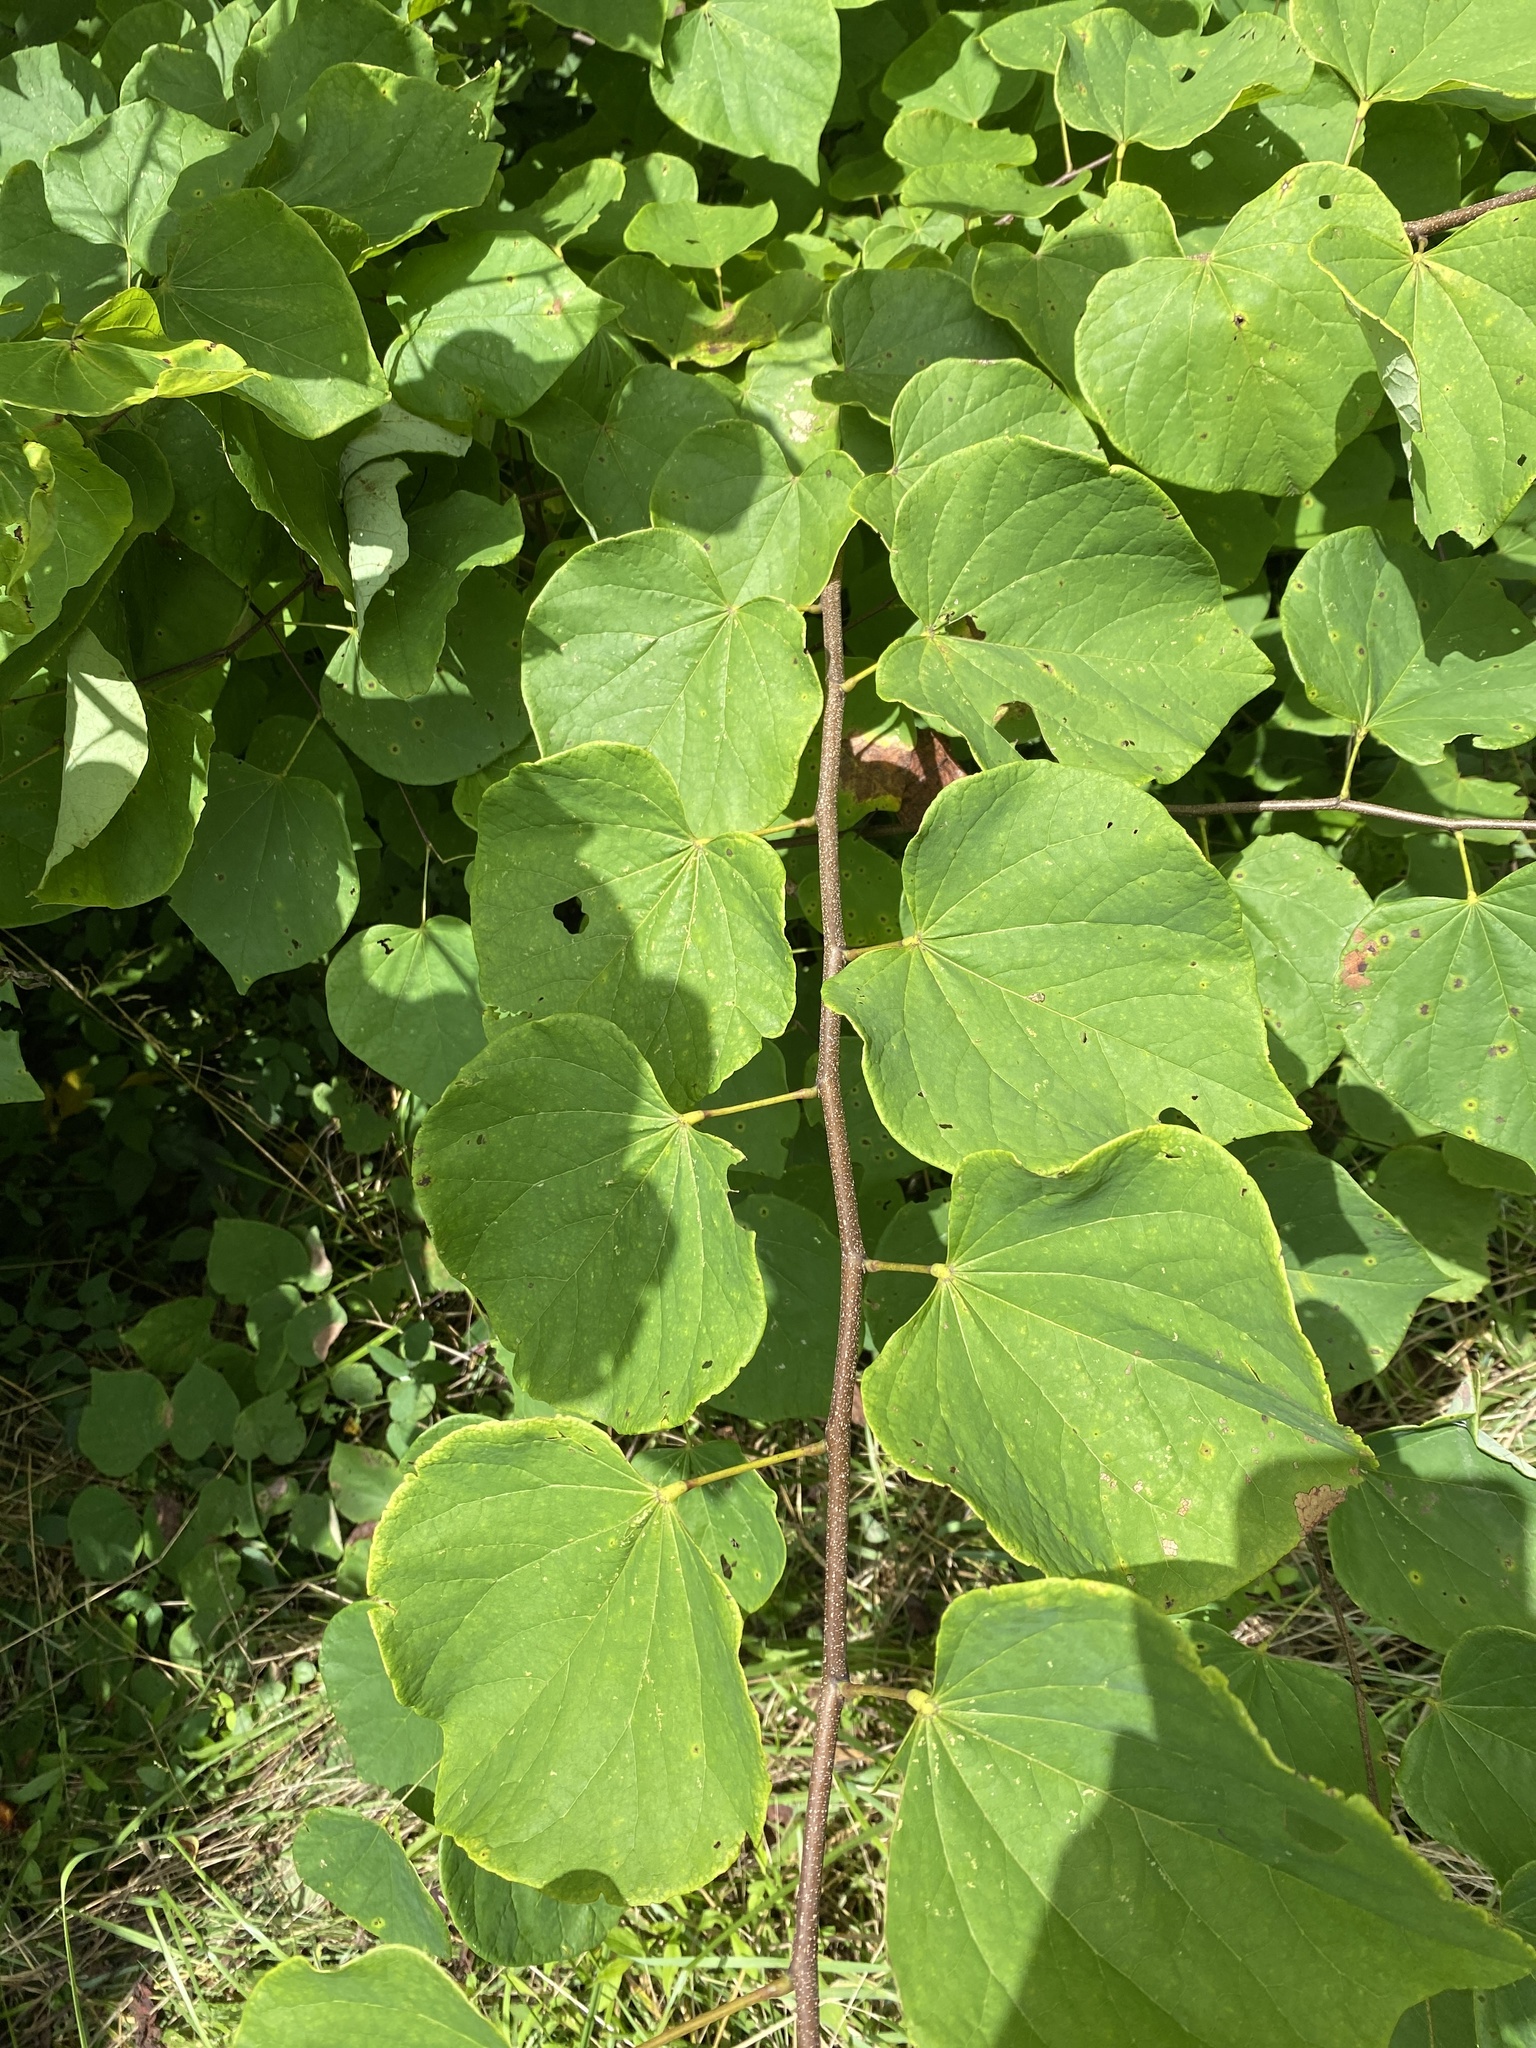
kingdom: Plantae
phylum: Tracheophyta
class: Magnoliopsida
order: Fabales
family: Fabaceae
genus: Cercis
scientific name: Cercis canadensis
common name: Eastern redbud
